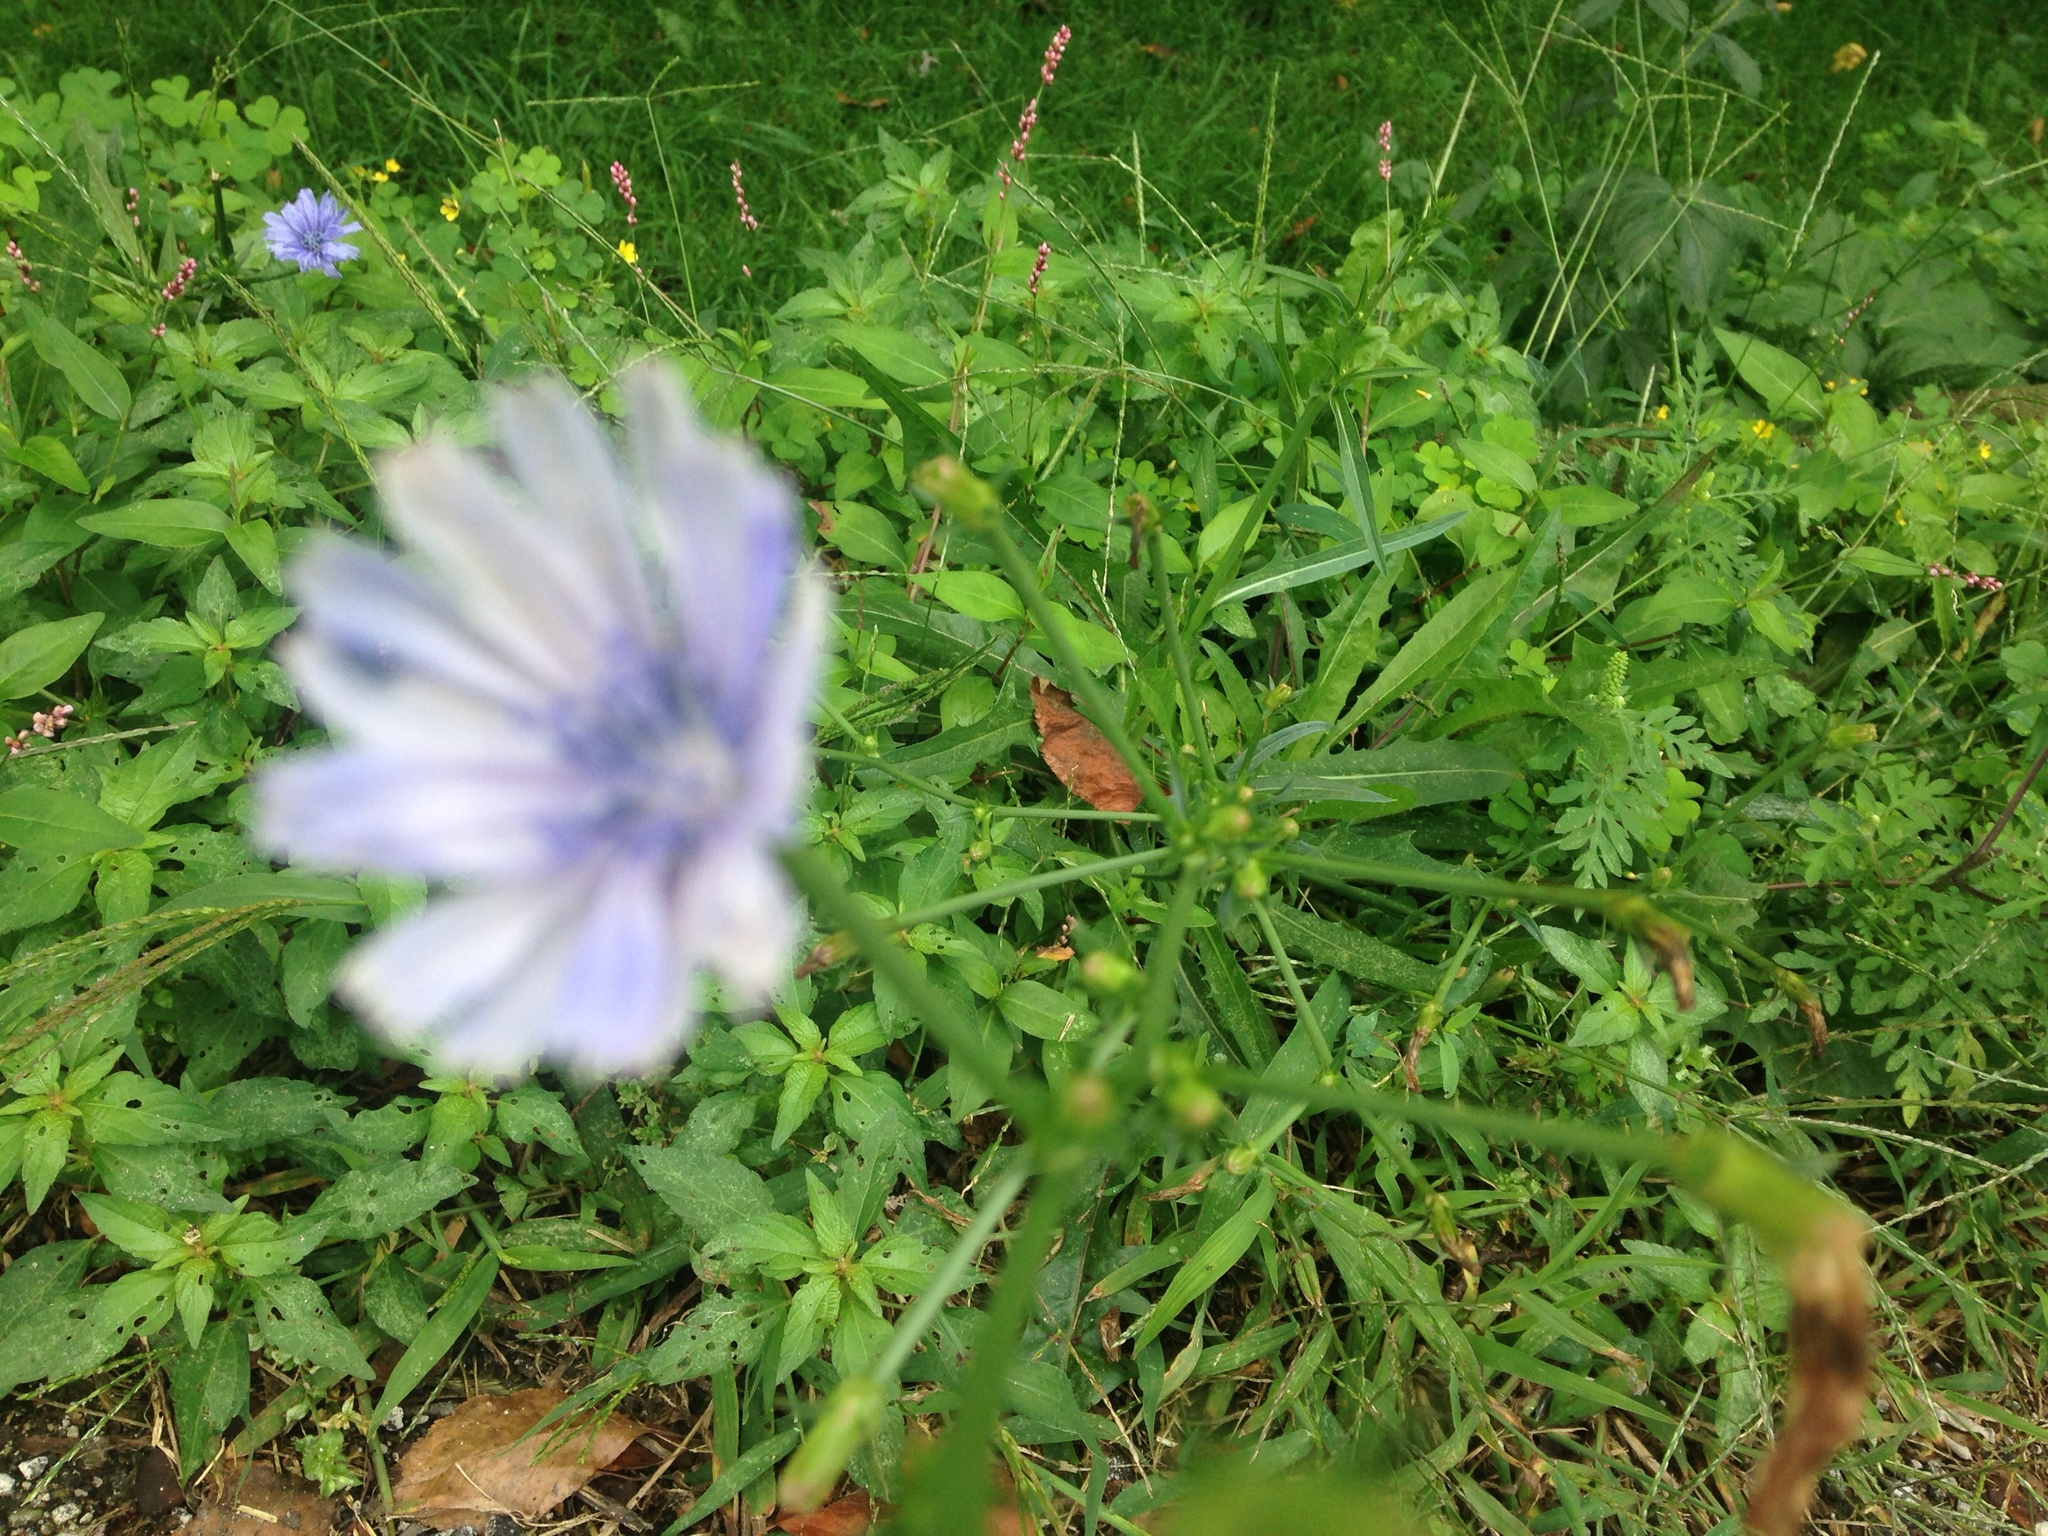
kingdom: Plantae
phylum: Tracheophyta
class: Magnoliopsida
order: Asterales
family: Asteraceae
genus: Cichorium
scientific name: Cichorium intybus
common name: Chicory
